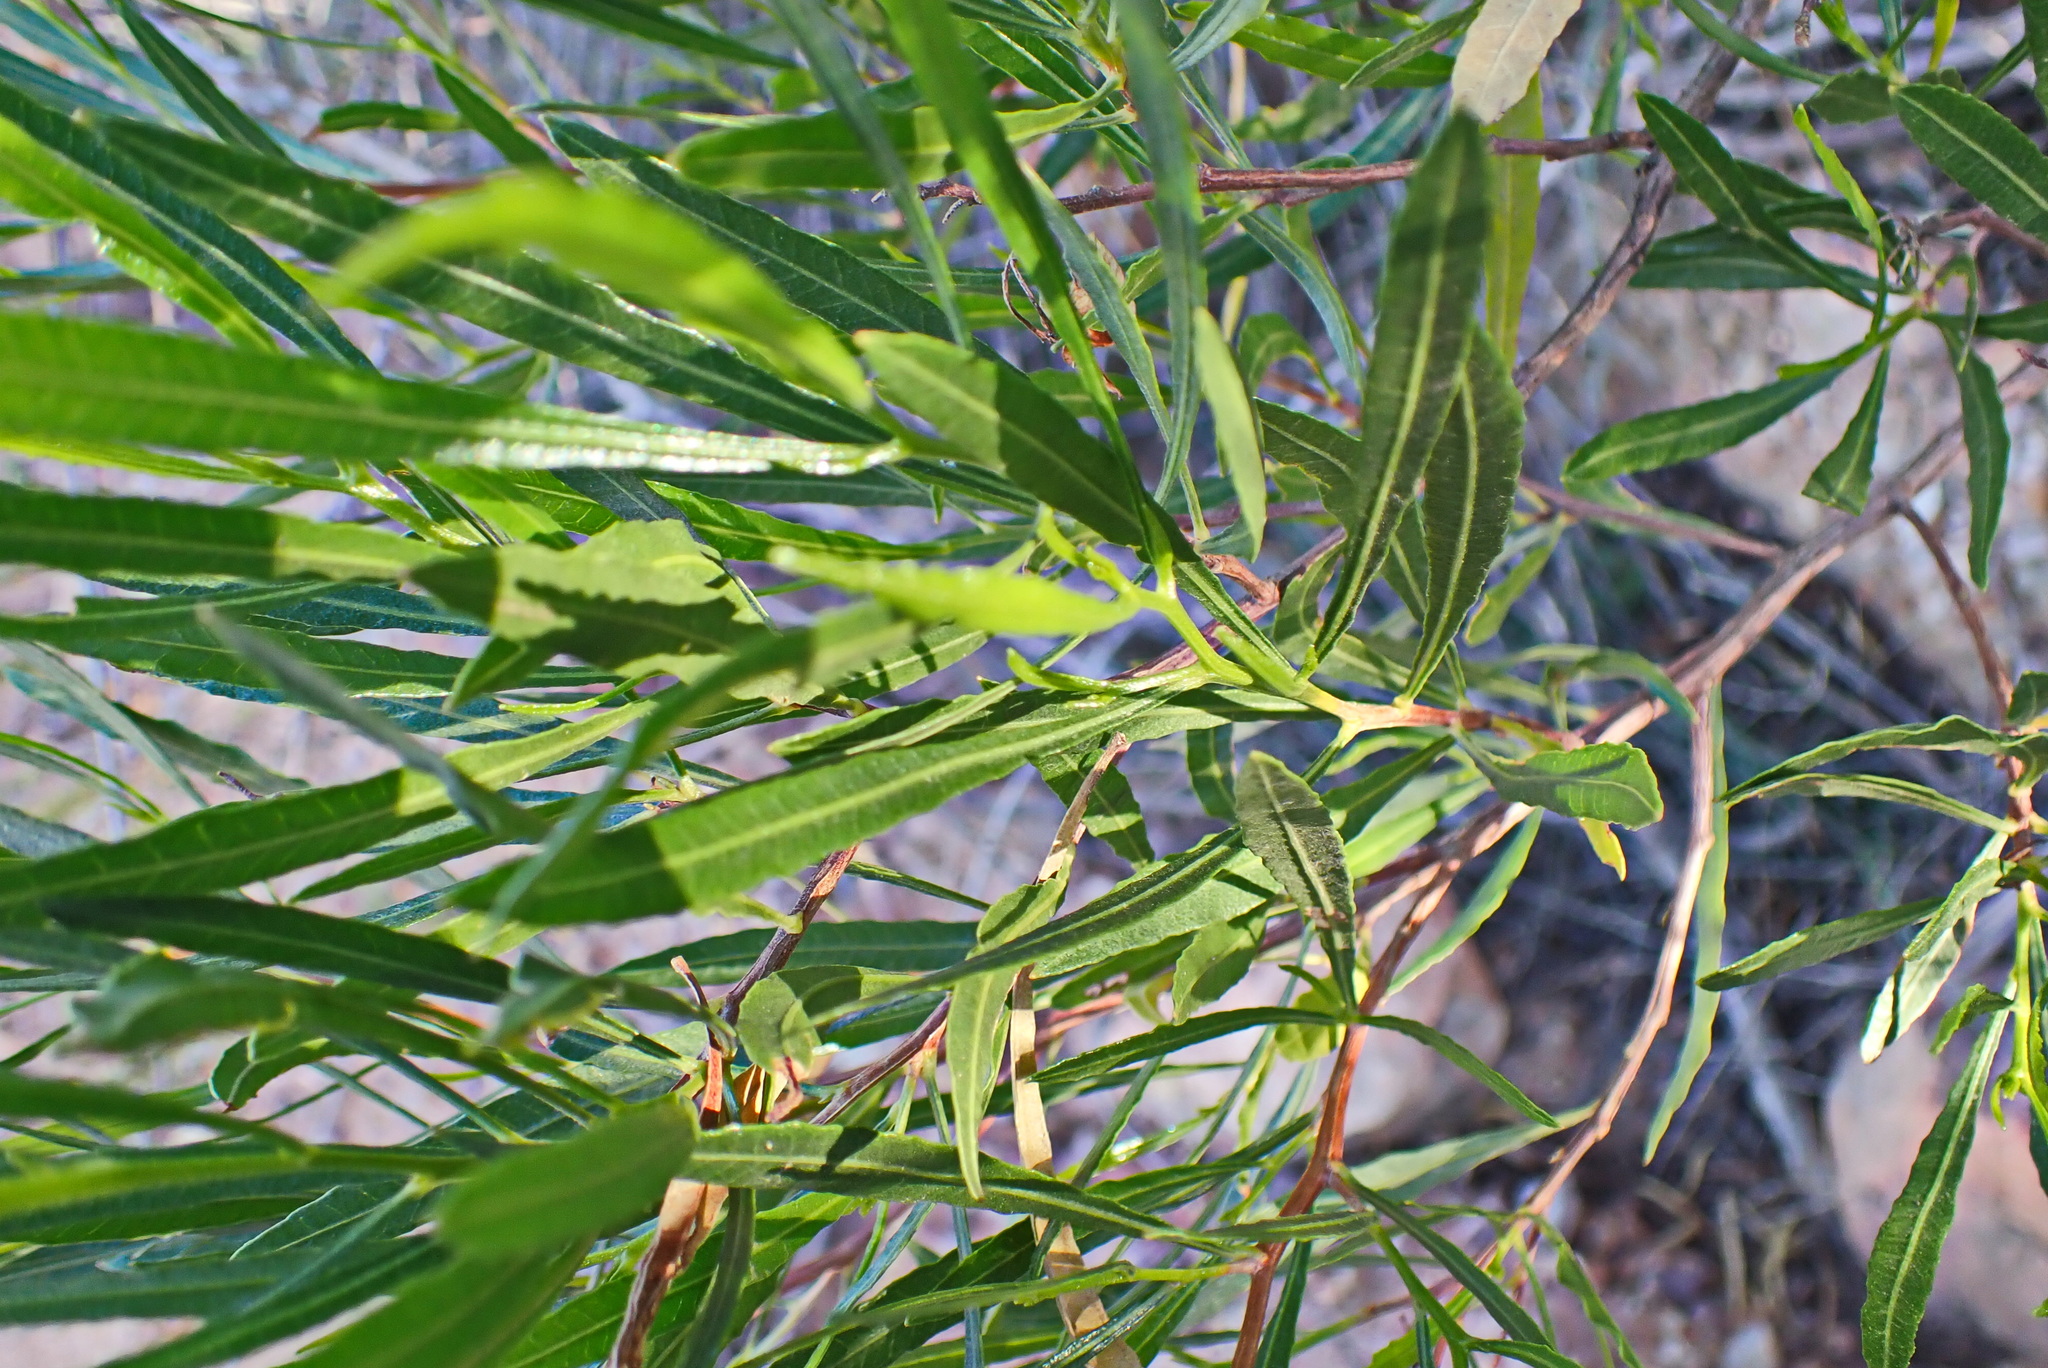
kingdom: Plantae
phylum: Tracheophyta
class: Magnoliopsida
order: Sapindales
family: Sapindaceae
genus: Dodonaea
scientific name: Dodonaea viscosa
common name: Hopbush
